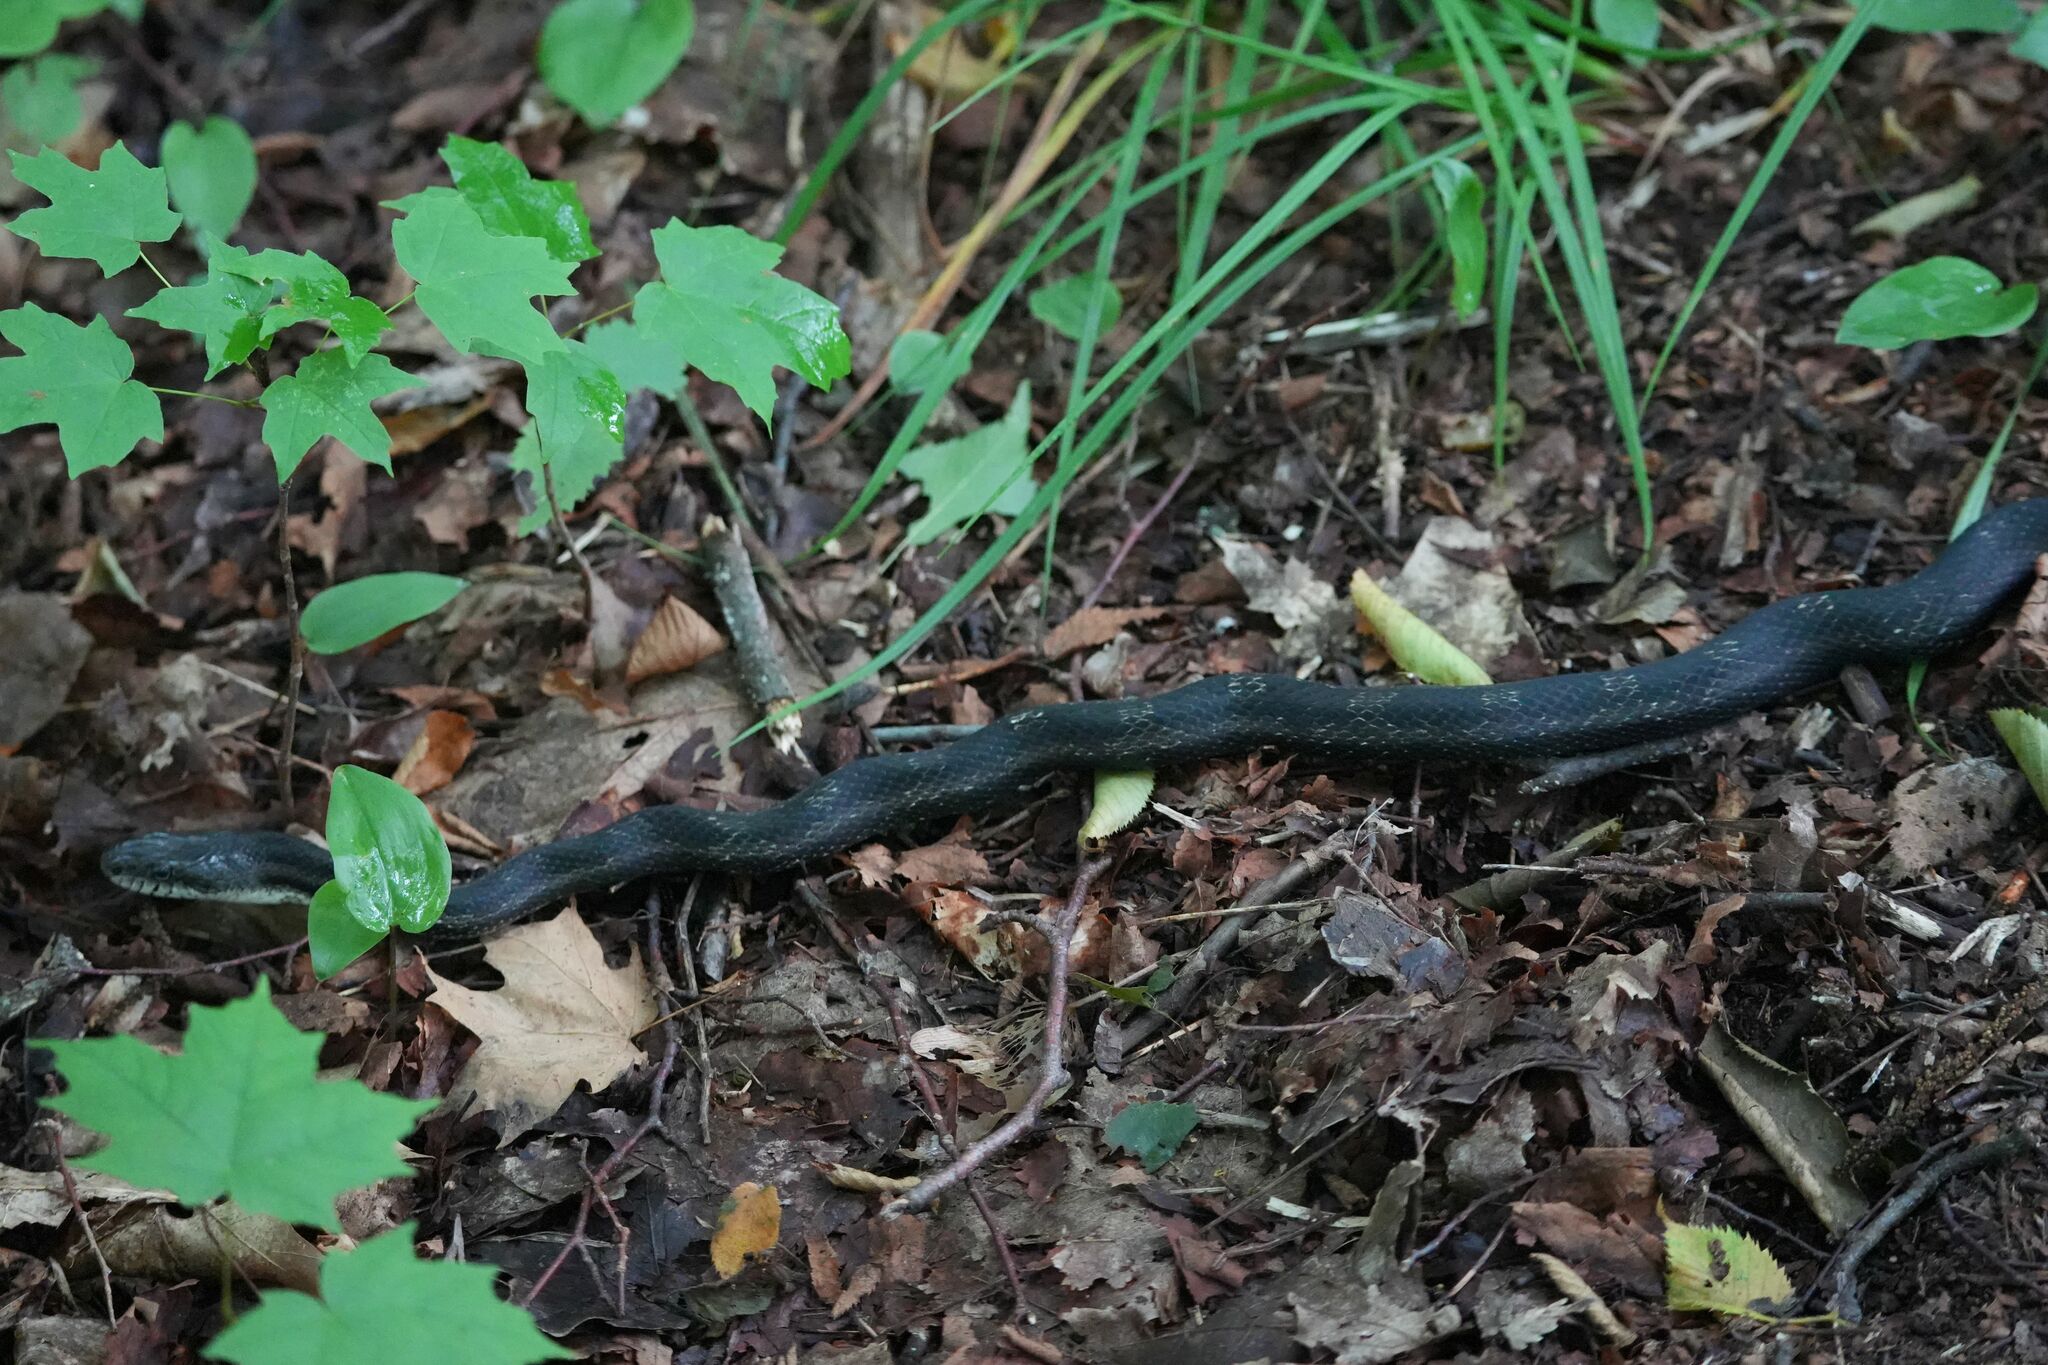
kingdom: Animalia
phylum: Chordata
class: Squamata
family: Colubridae
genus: Pantherophis
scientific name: Pantherophis spiloides
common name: Gray rat snake
